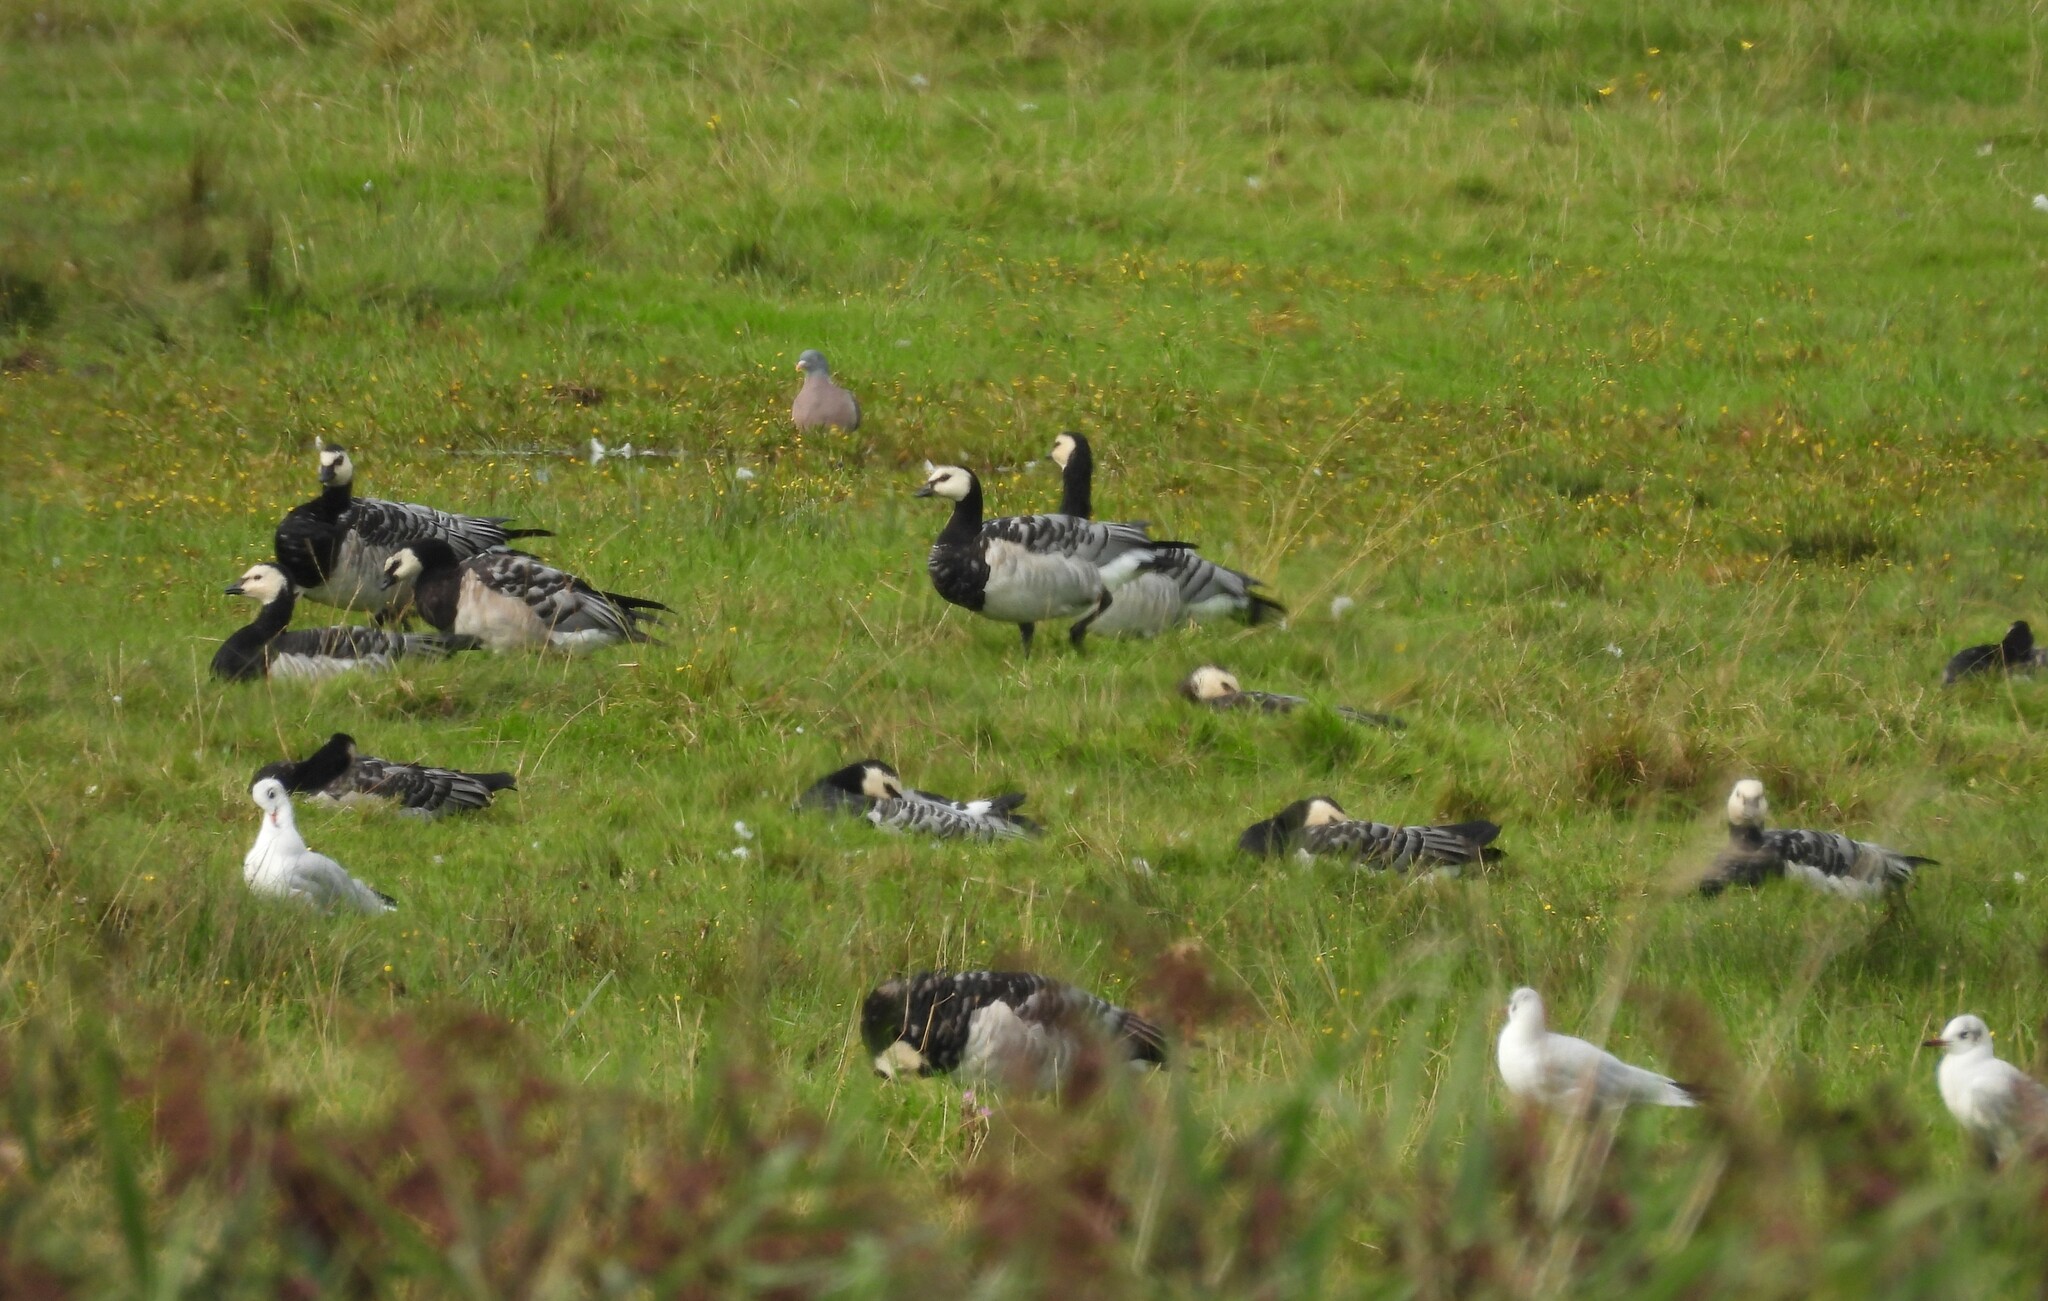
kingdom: Animalia
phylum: Chordata
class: Aves
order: Anseriformes
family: Anatidae
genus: Branta
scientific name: Branta leucopsis
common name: Barnacle goose
